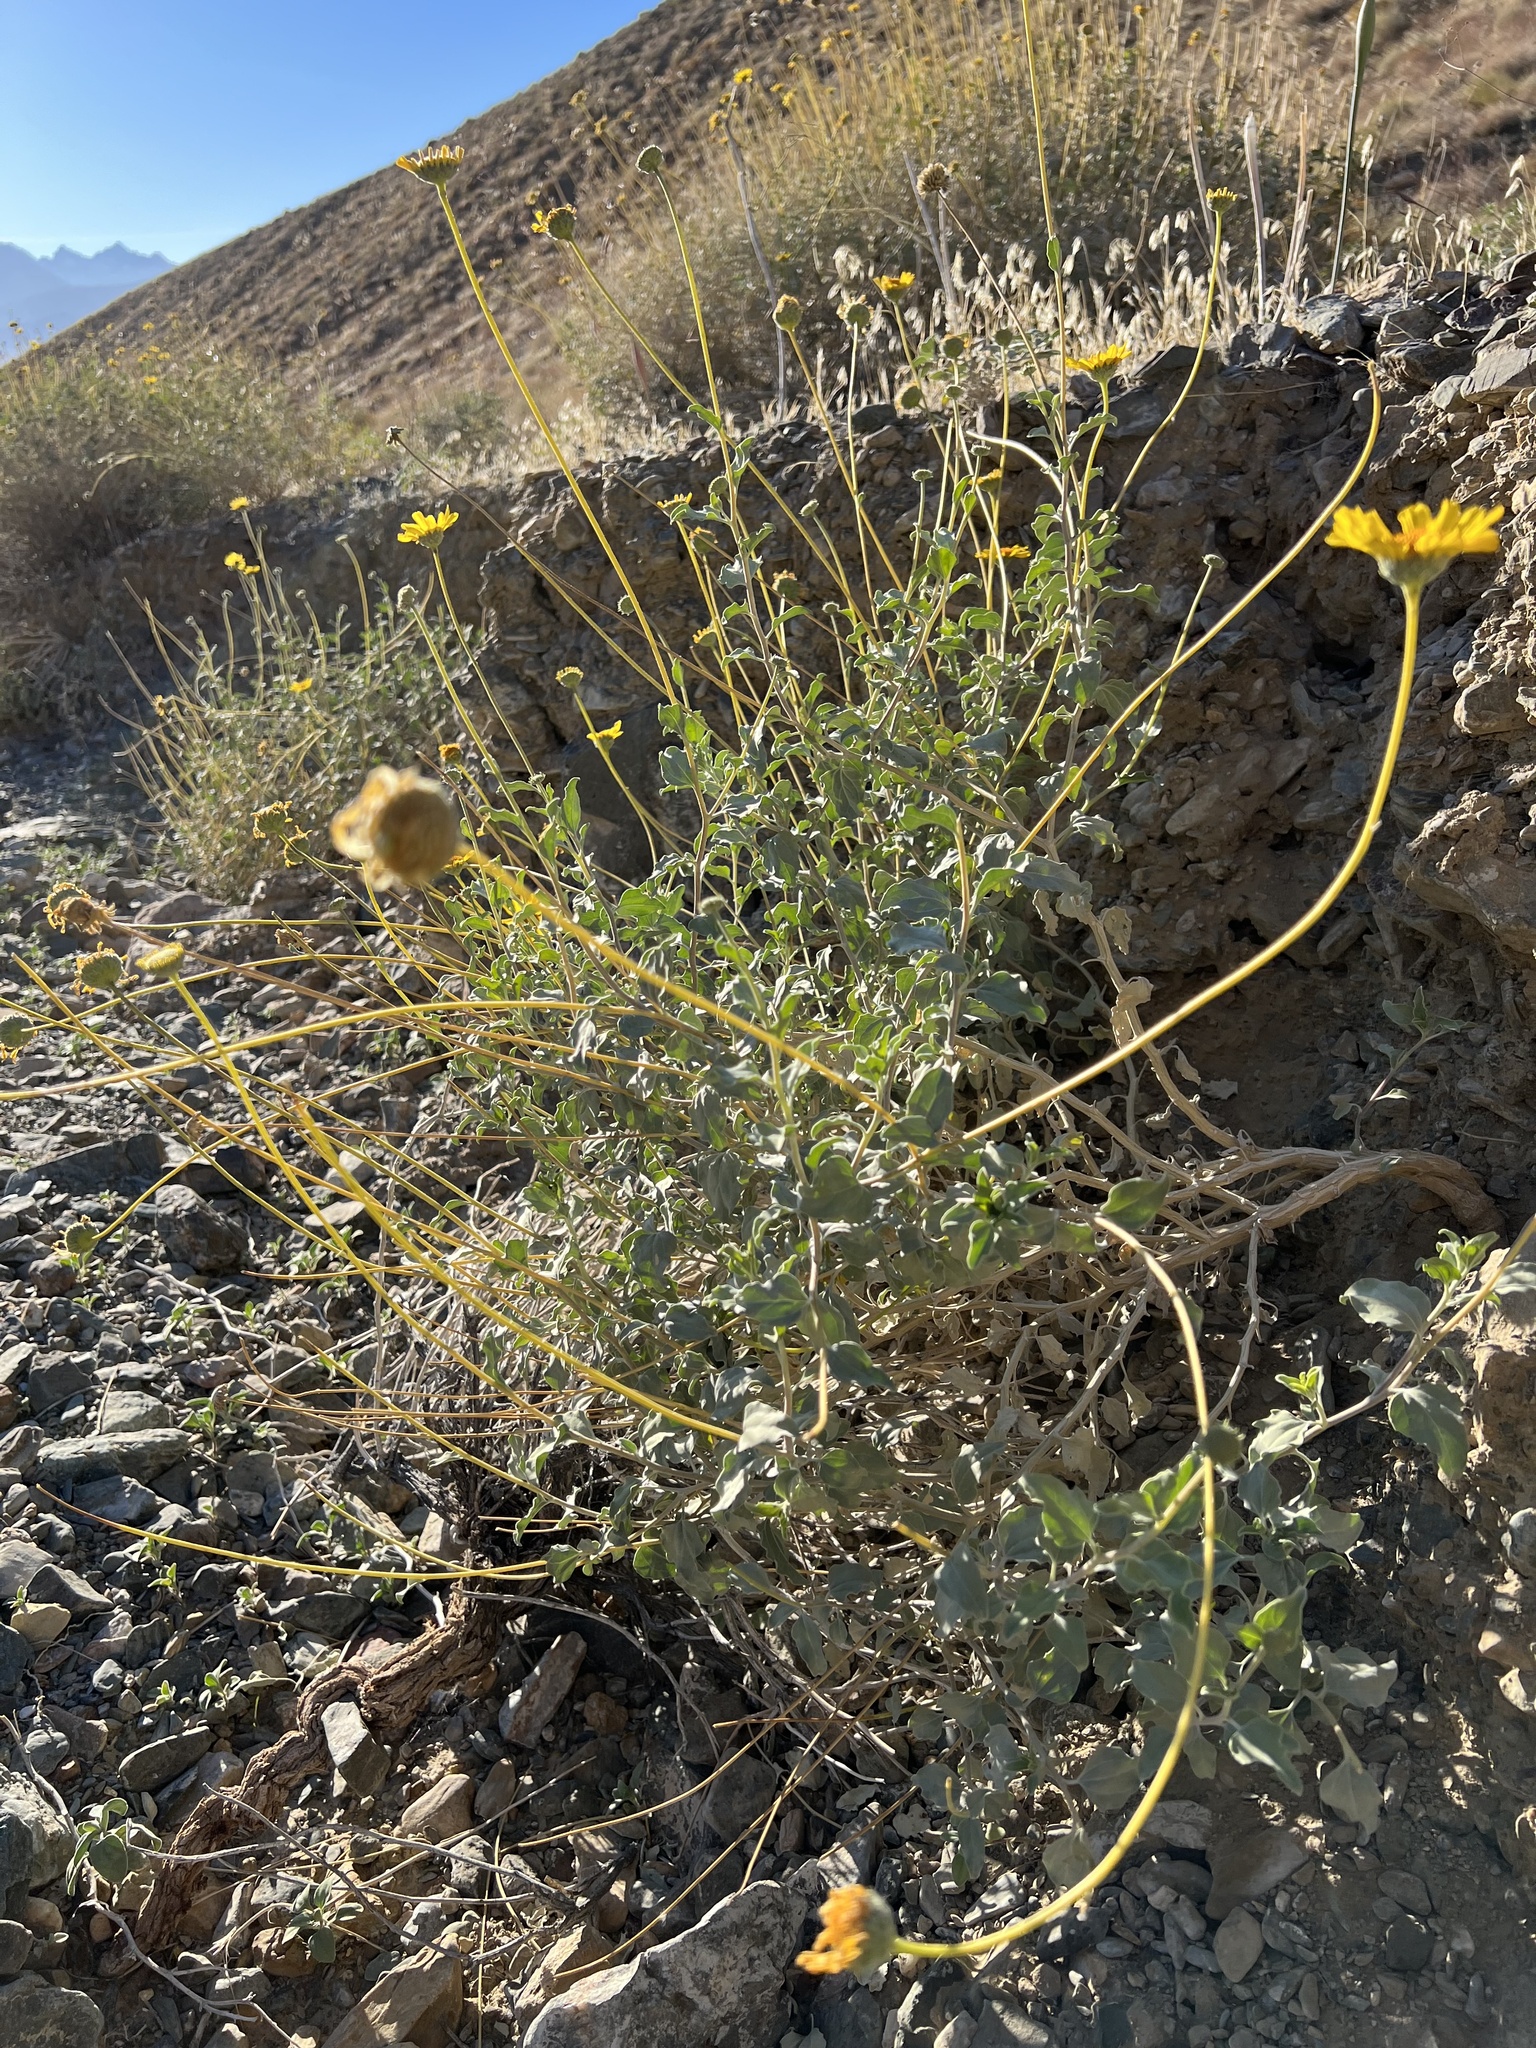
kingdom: Plantae
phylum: Tracheophyta
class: Magnoliopsida
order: Asterales
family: Asteraceae
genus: Encelia
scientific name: Encelia actoni
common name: Acton encelia
